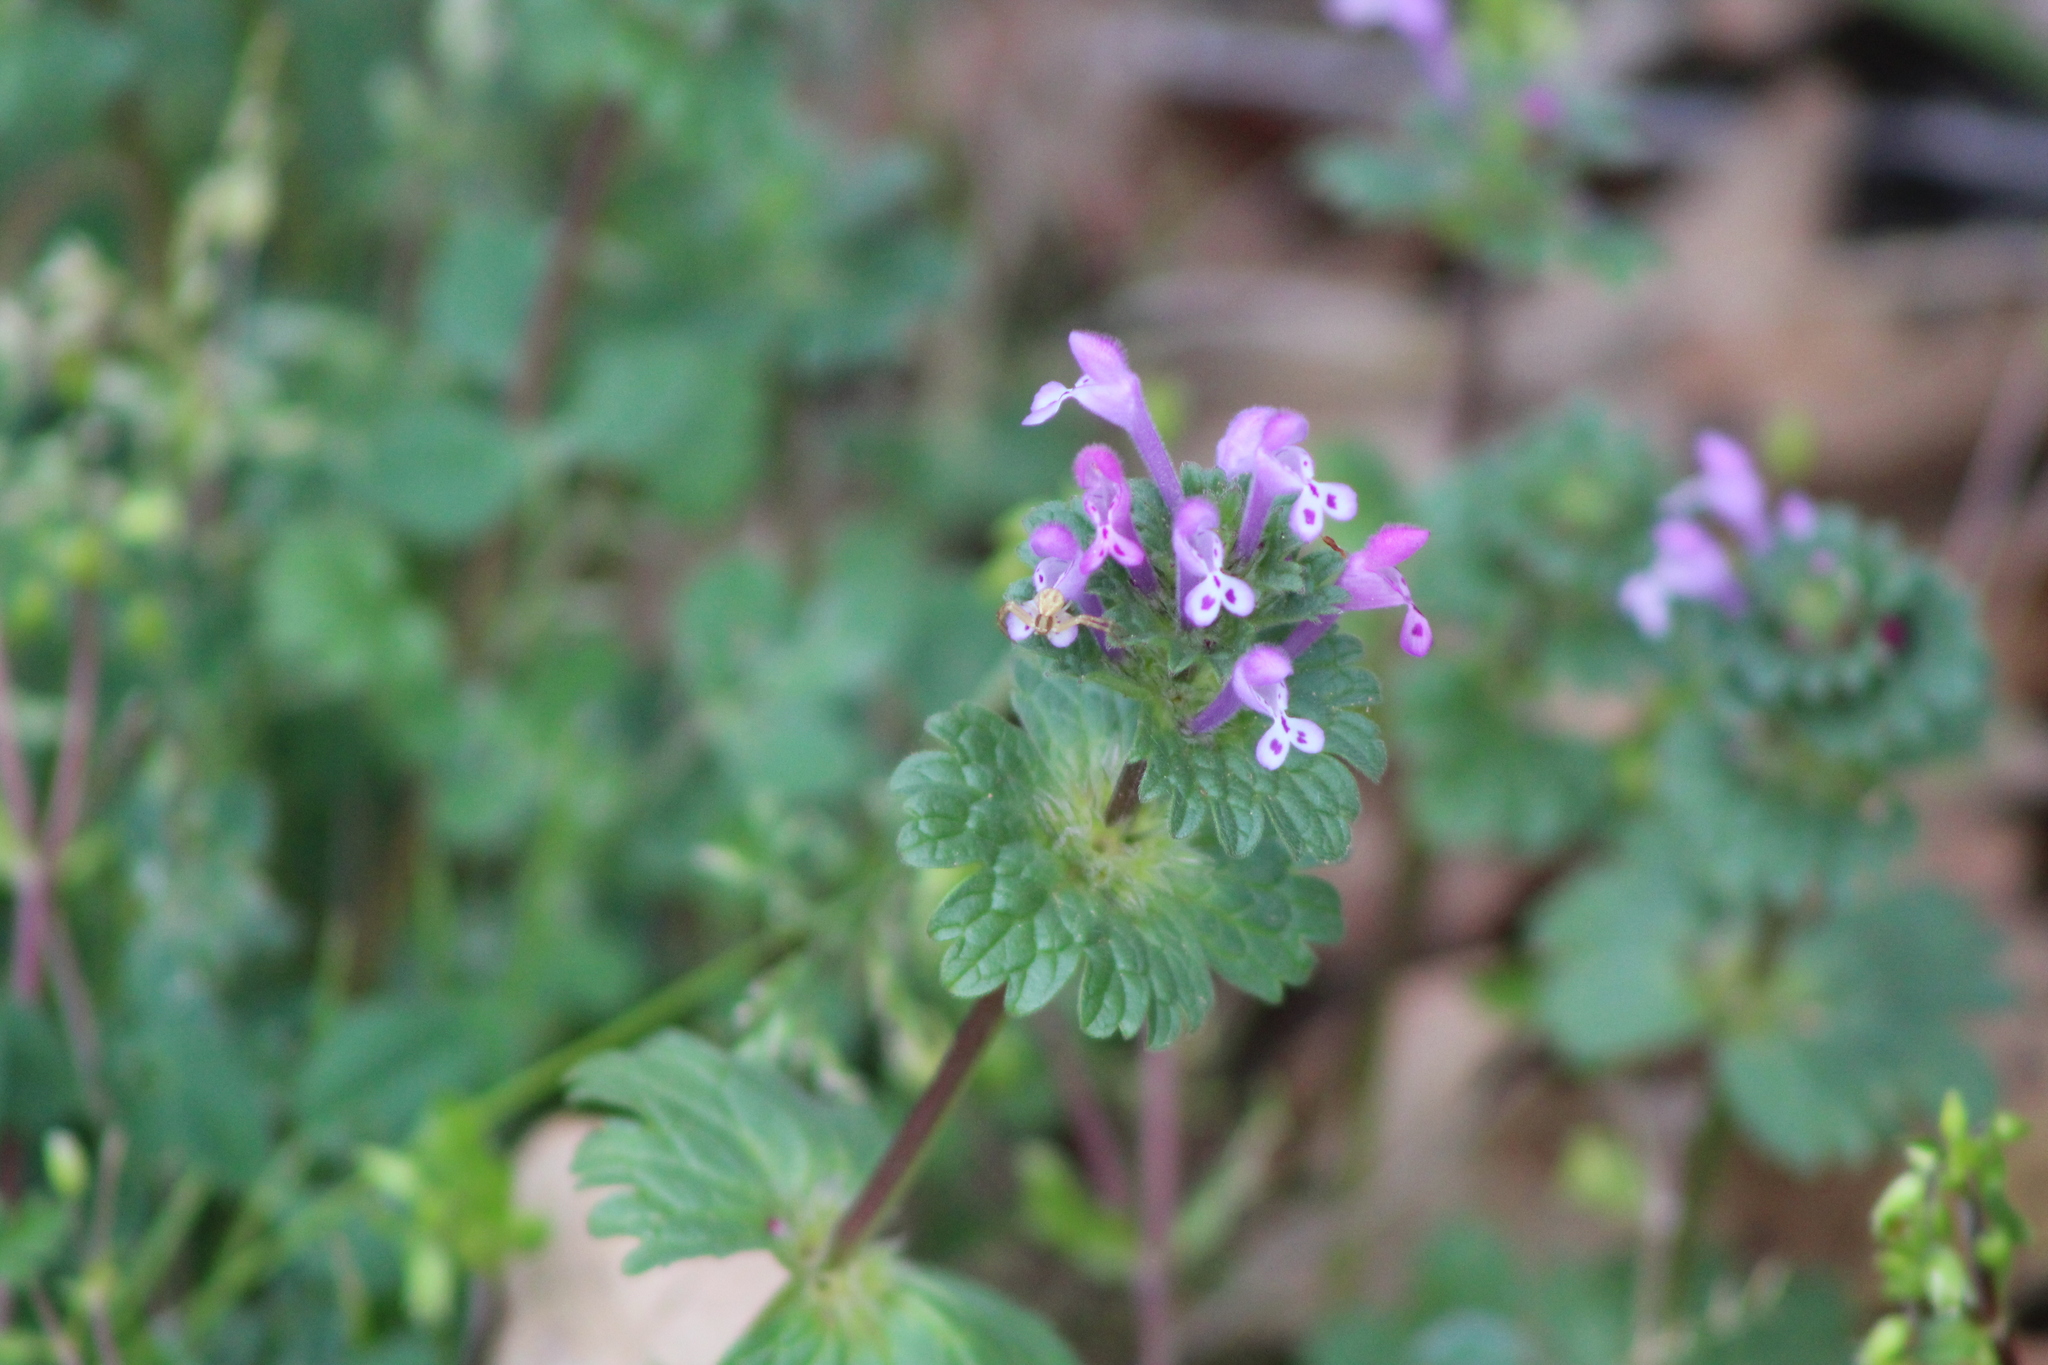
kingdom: Plantae
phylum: Tracheophyta
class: Magnoliopsida
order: Lamiales
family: Lamiaceae
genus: Lamium
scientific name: Lamium amplexicaule
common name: Henbit dead-nettle
